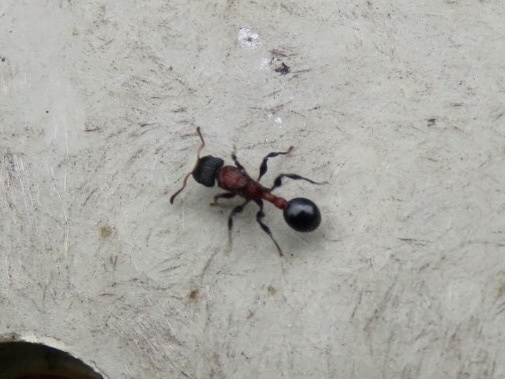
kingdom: Animalia
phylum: Arthropoda
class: Insecta
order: Hymenoptera
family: Formicidae
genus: Dilobocondyla
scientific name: Dilobocondyla fouqueti
